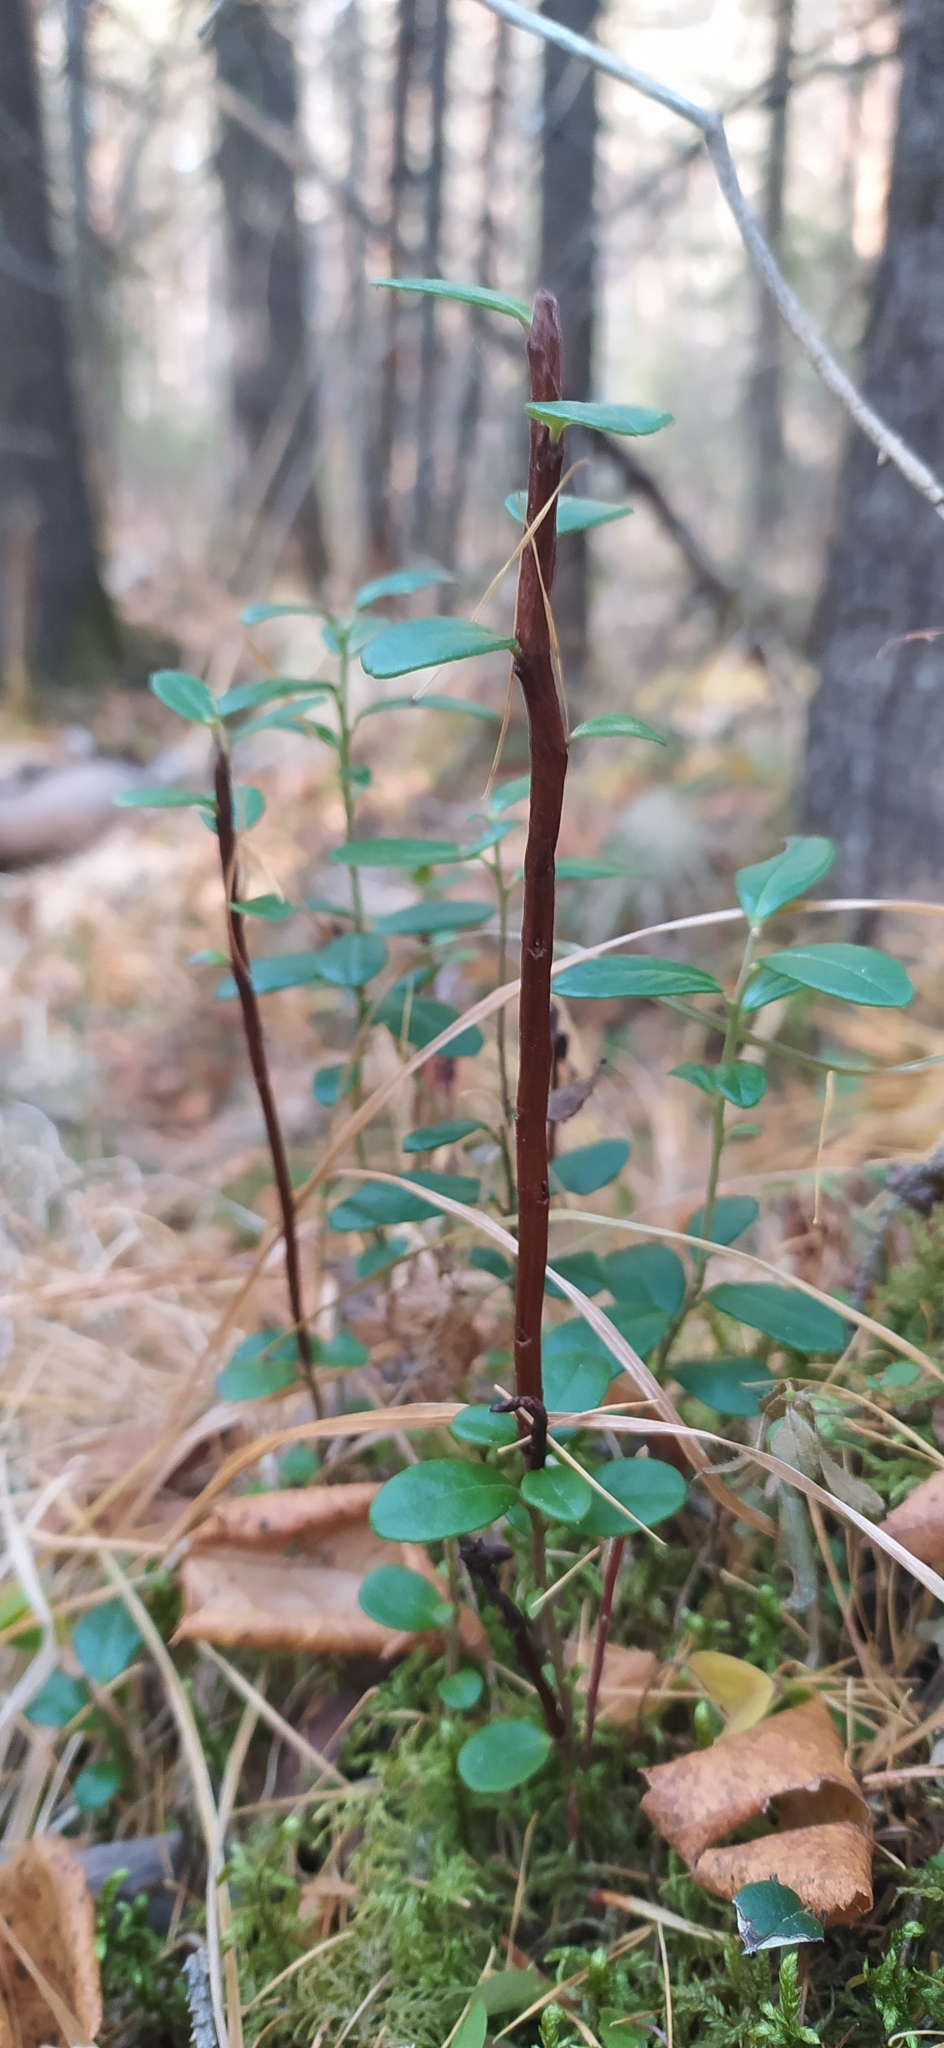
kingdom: Fungi
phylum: Basidiomycota
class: Pucciniomycetes
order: Pucciniales
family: Pucciniastraceae
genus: Calyptospora
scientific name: Calyptospora columnaris
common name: Huckleberry broom rust fungus
